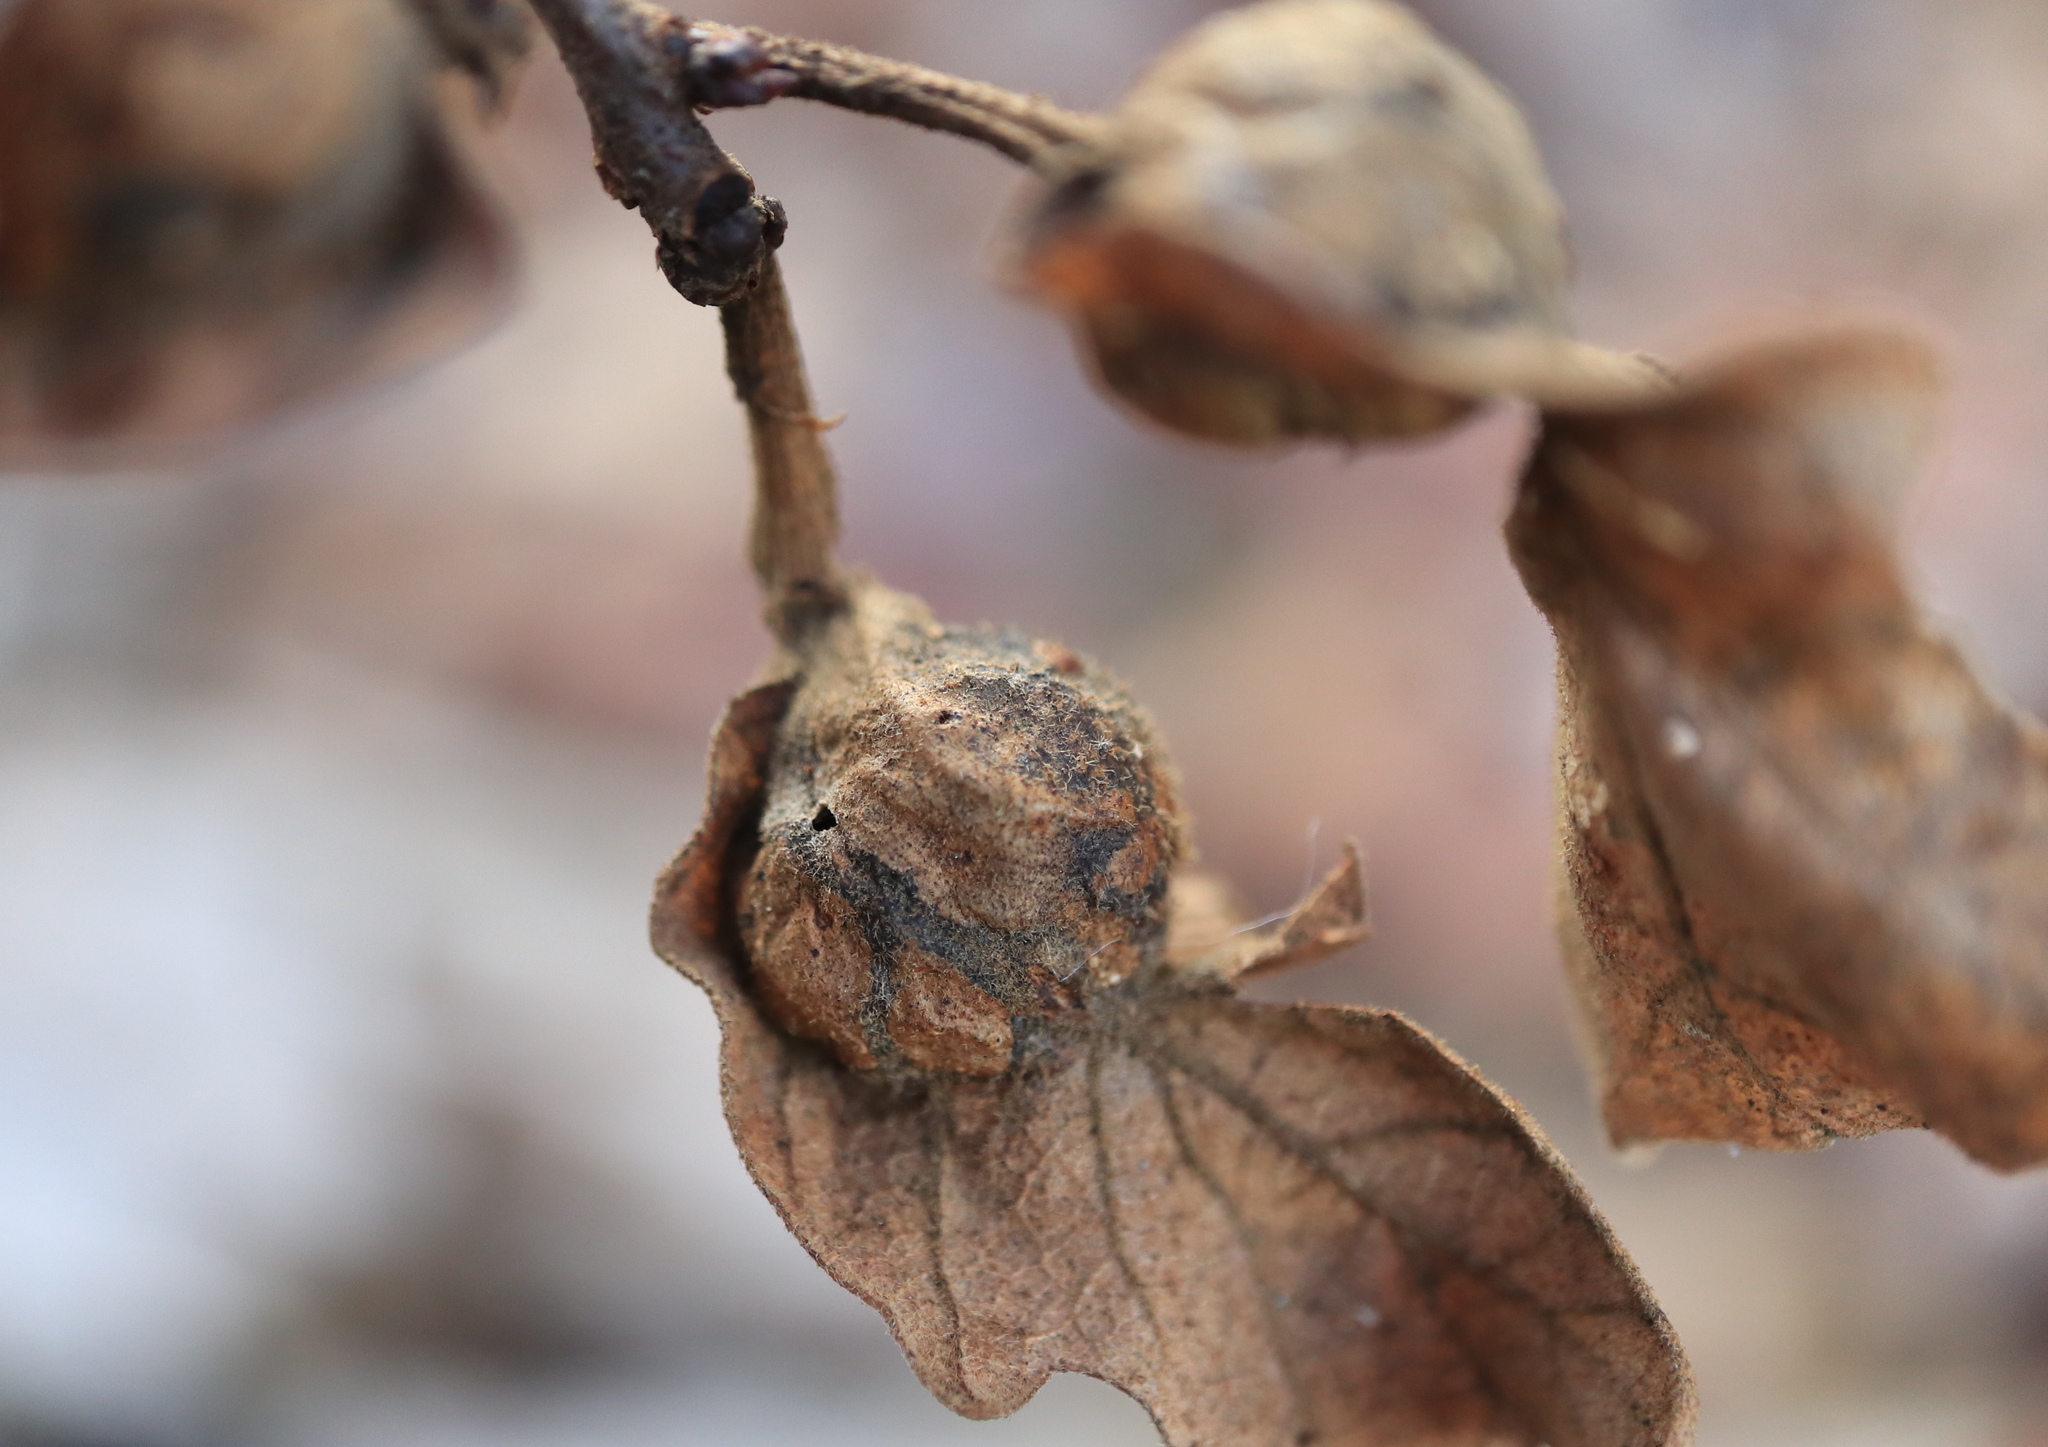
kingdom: Animalia
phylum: Arthropoda
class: Insecta
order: Hymenoptera
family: Cynipidae
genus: Andricus
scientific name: Andricus
